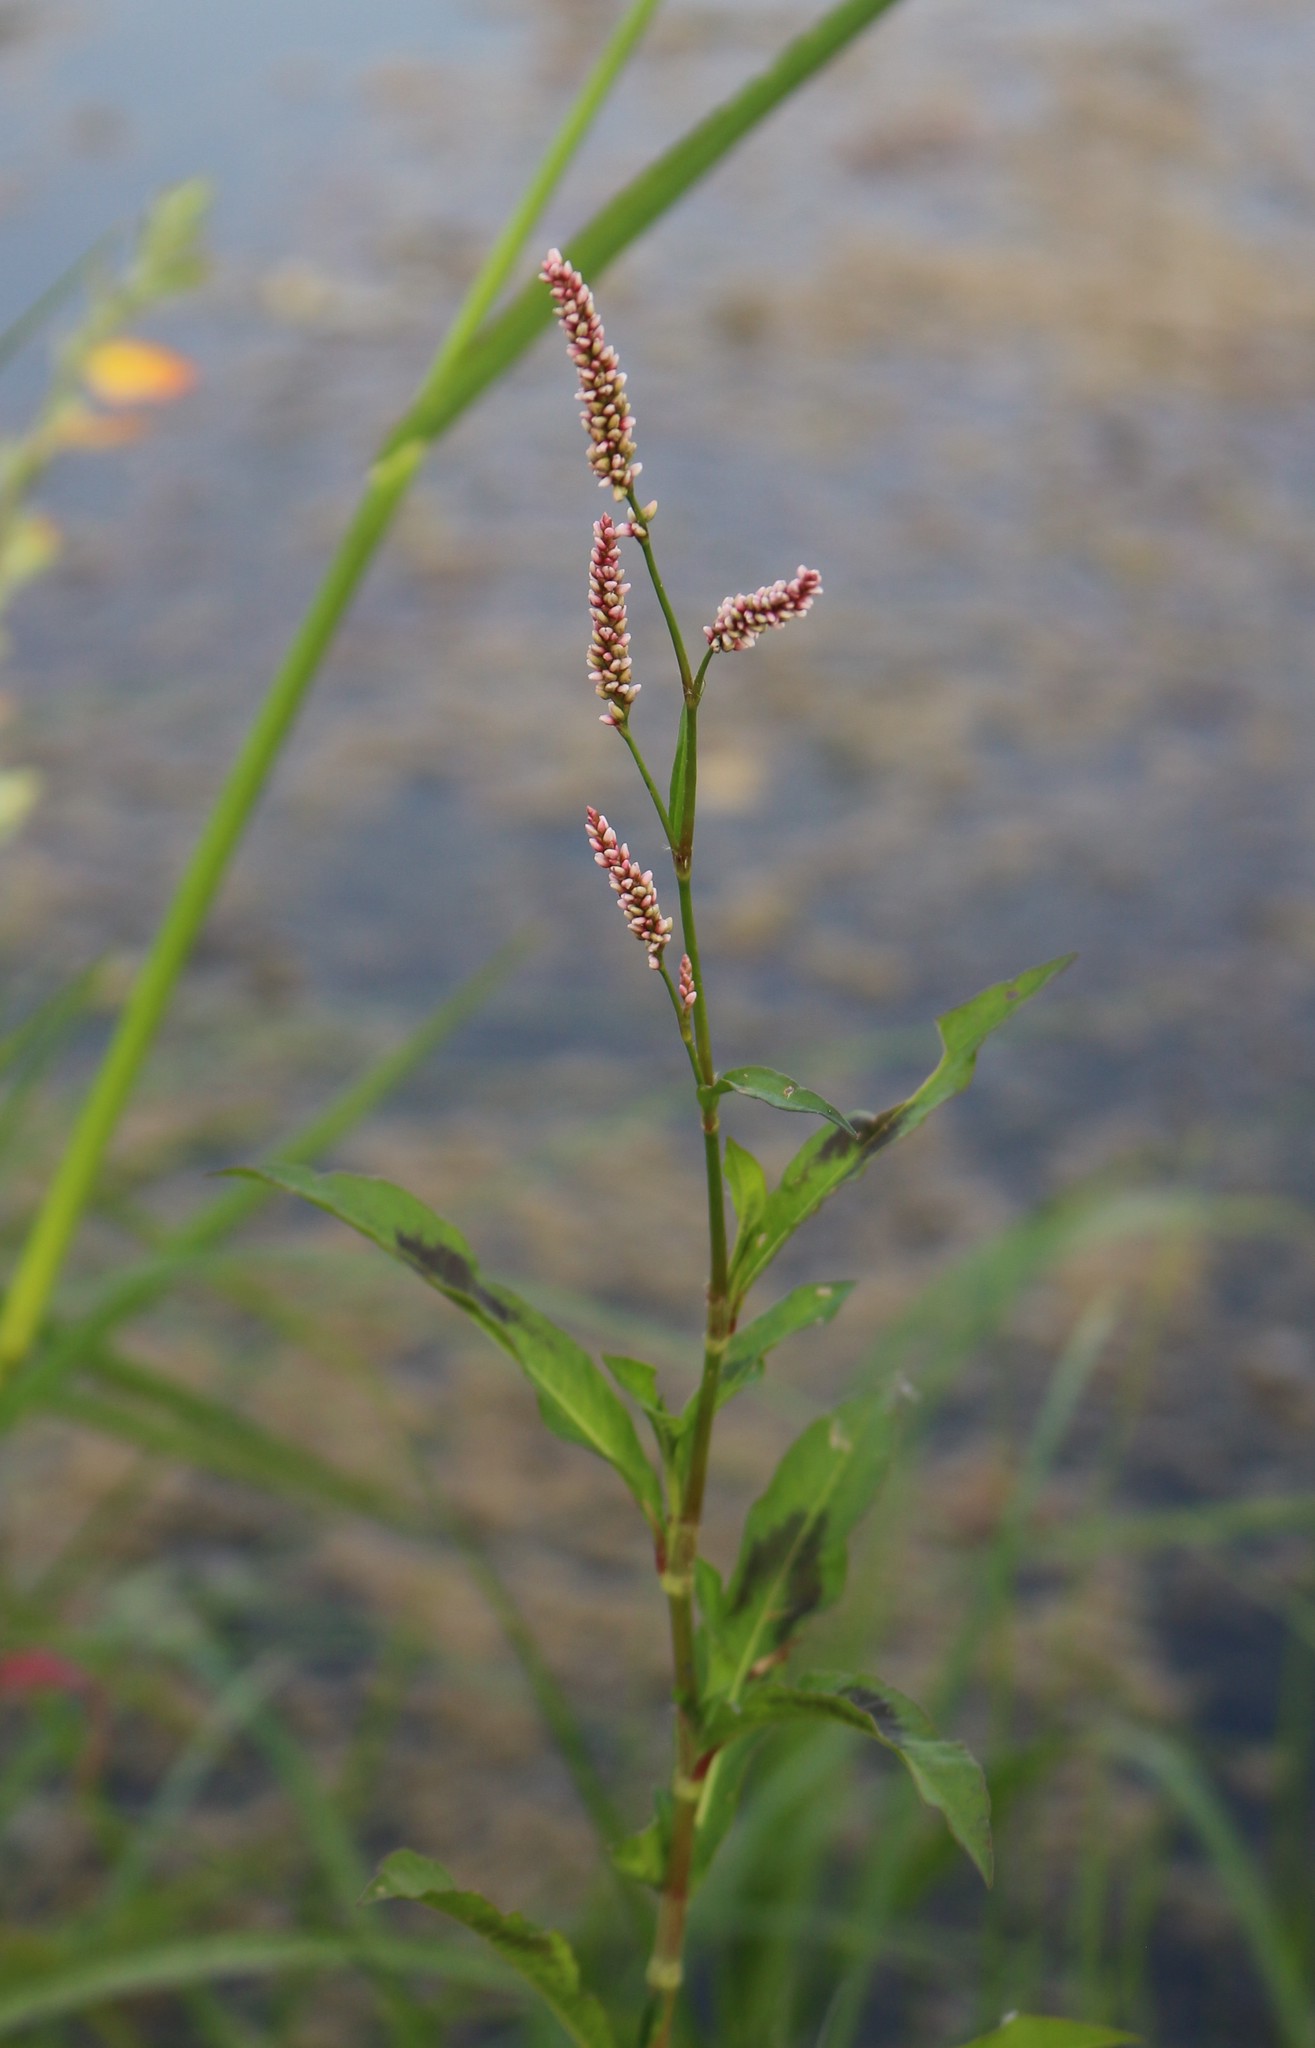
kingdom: Plantae
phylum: Tracheophyta
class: Magnoliopsida
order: Caryophyllales
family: Polygonaceae
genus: Persicaria
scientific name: Persicaria maculosa
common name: Redshank
